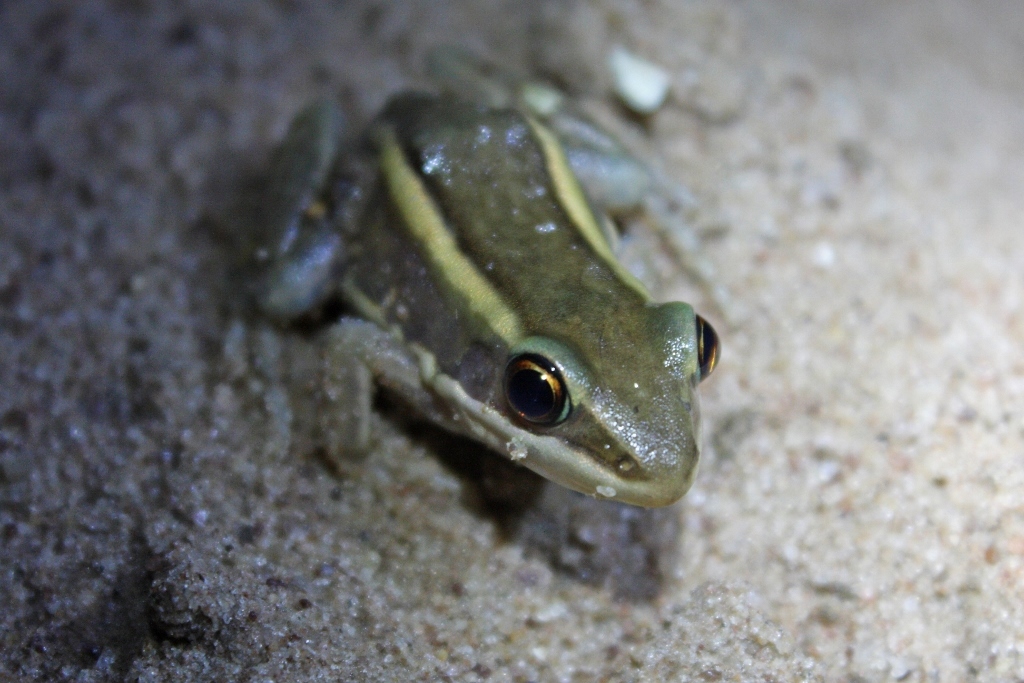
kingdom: Animalia
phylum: Chordata
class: Amphibia
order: Anura
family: Ranidae
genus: Amnirana
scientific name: Amnirana galamensis
